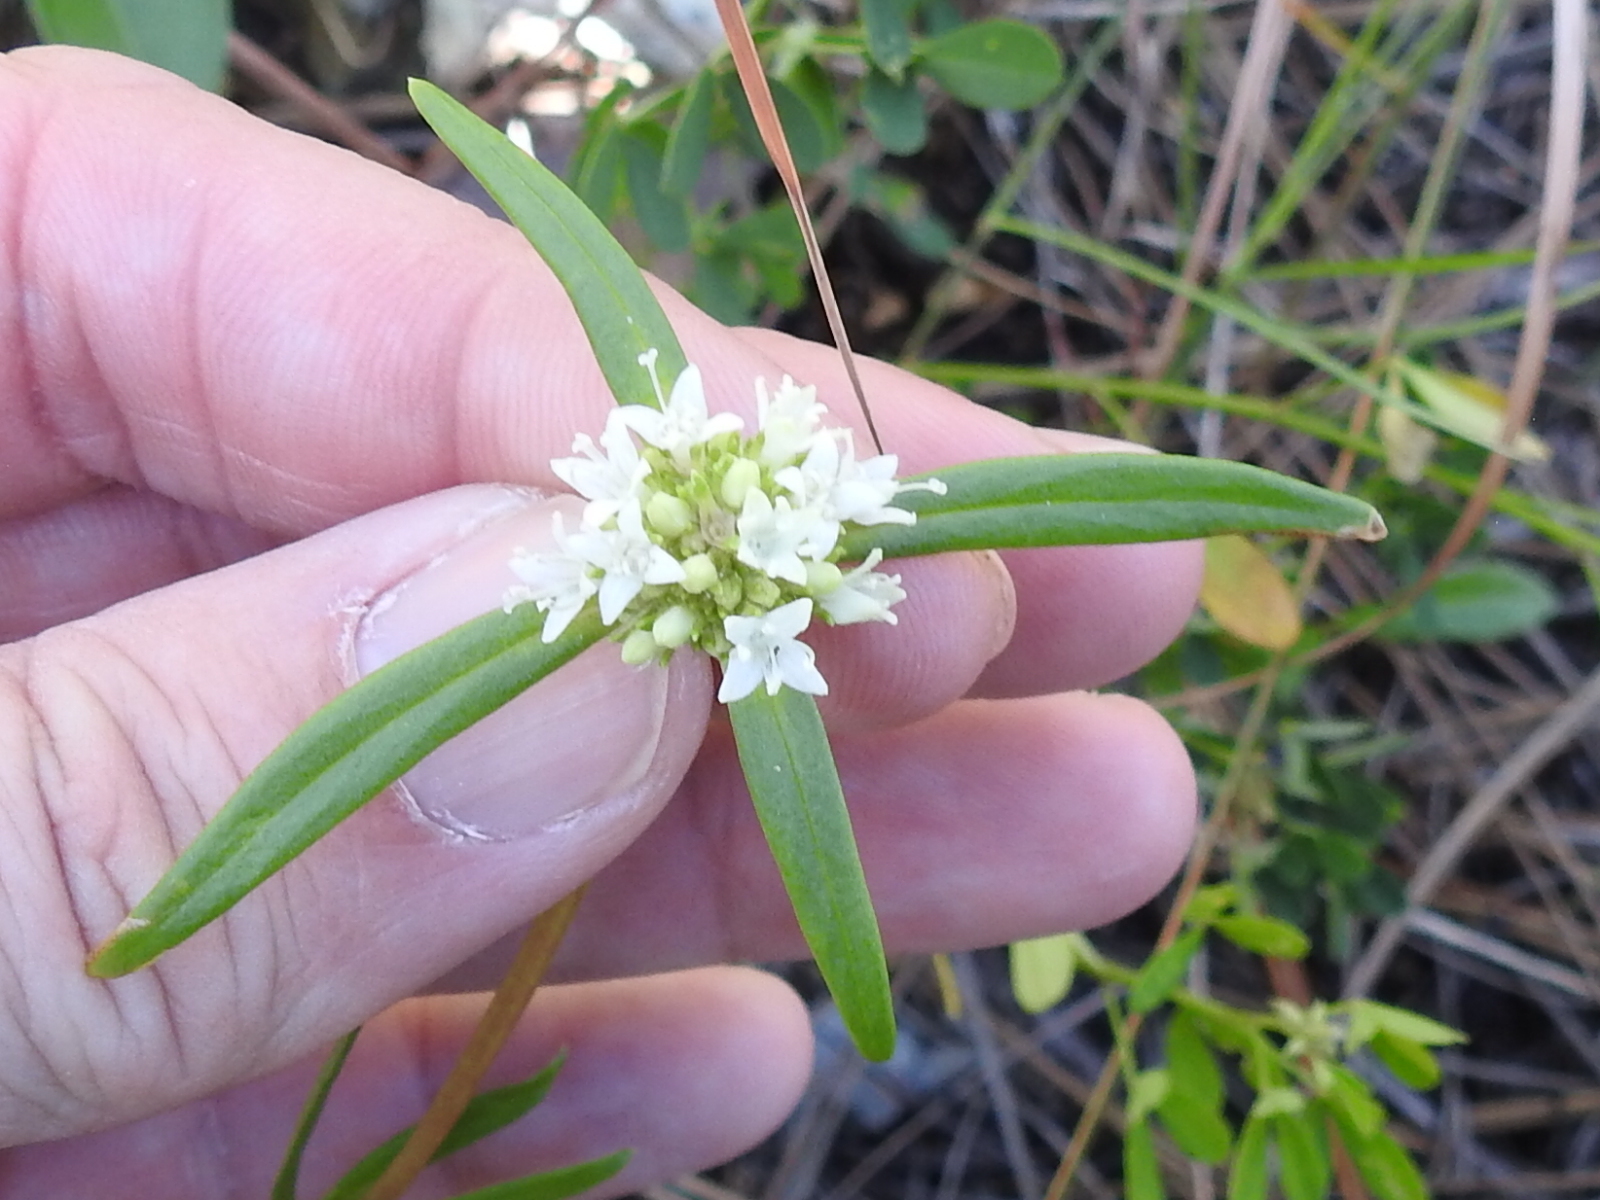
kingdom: Plantae
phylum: Tracheophyta
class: Magnoliopsida
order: Gentianales
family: Rubiaceae
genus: Spermacoce
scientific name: Spermacoce neoterminalis
